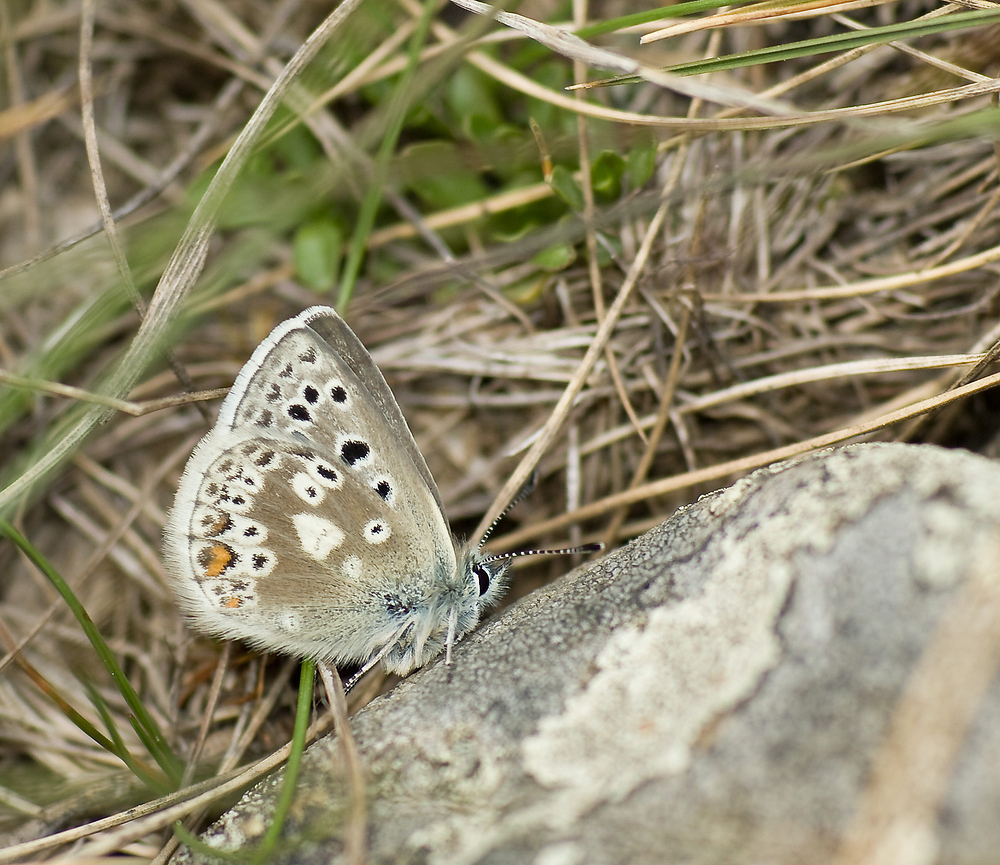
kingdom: Animalia
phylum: Arthropoda
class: Insecta
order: Lepidoptera
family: Lycaenidae
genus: Agriades
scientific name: Agriades glandon
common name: Glandon blue
